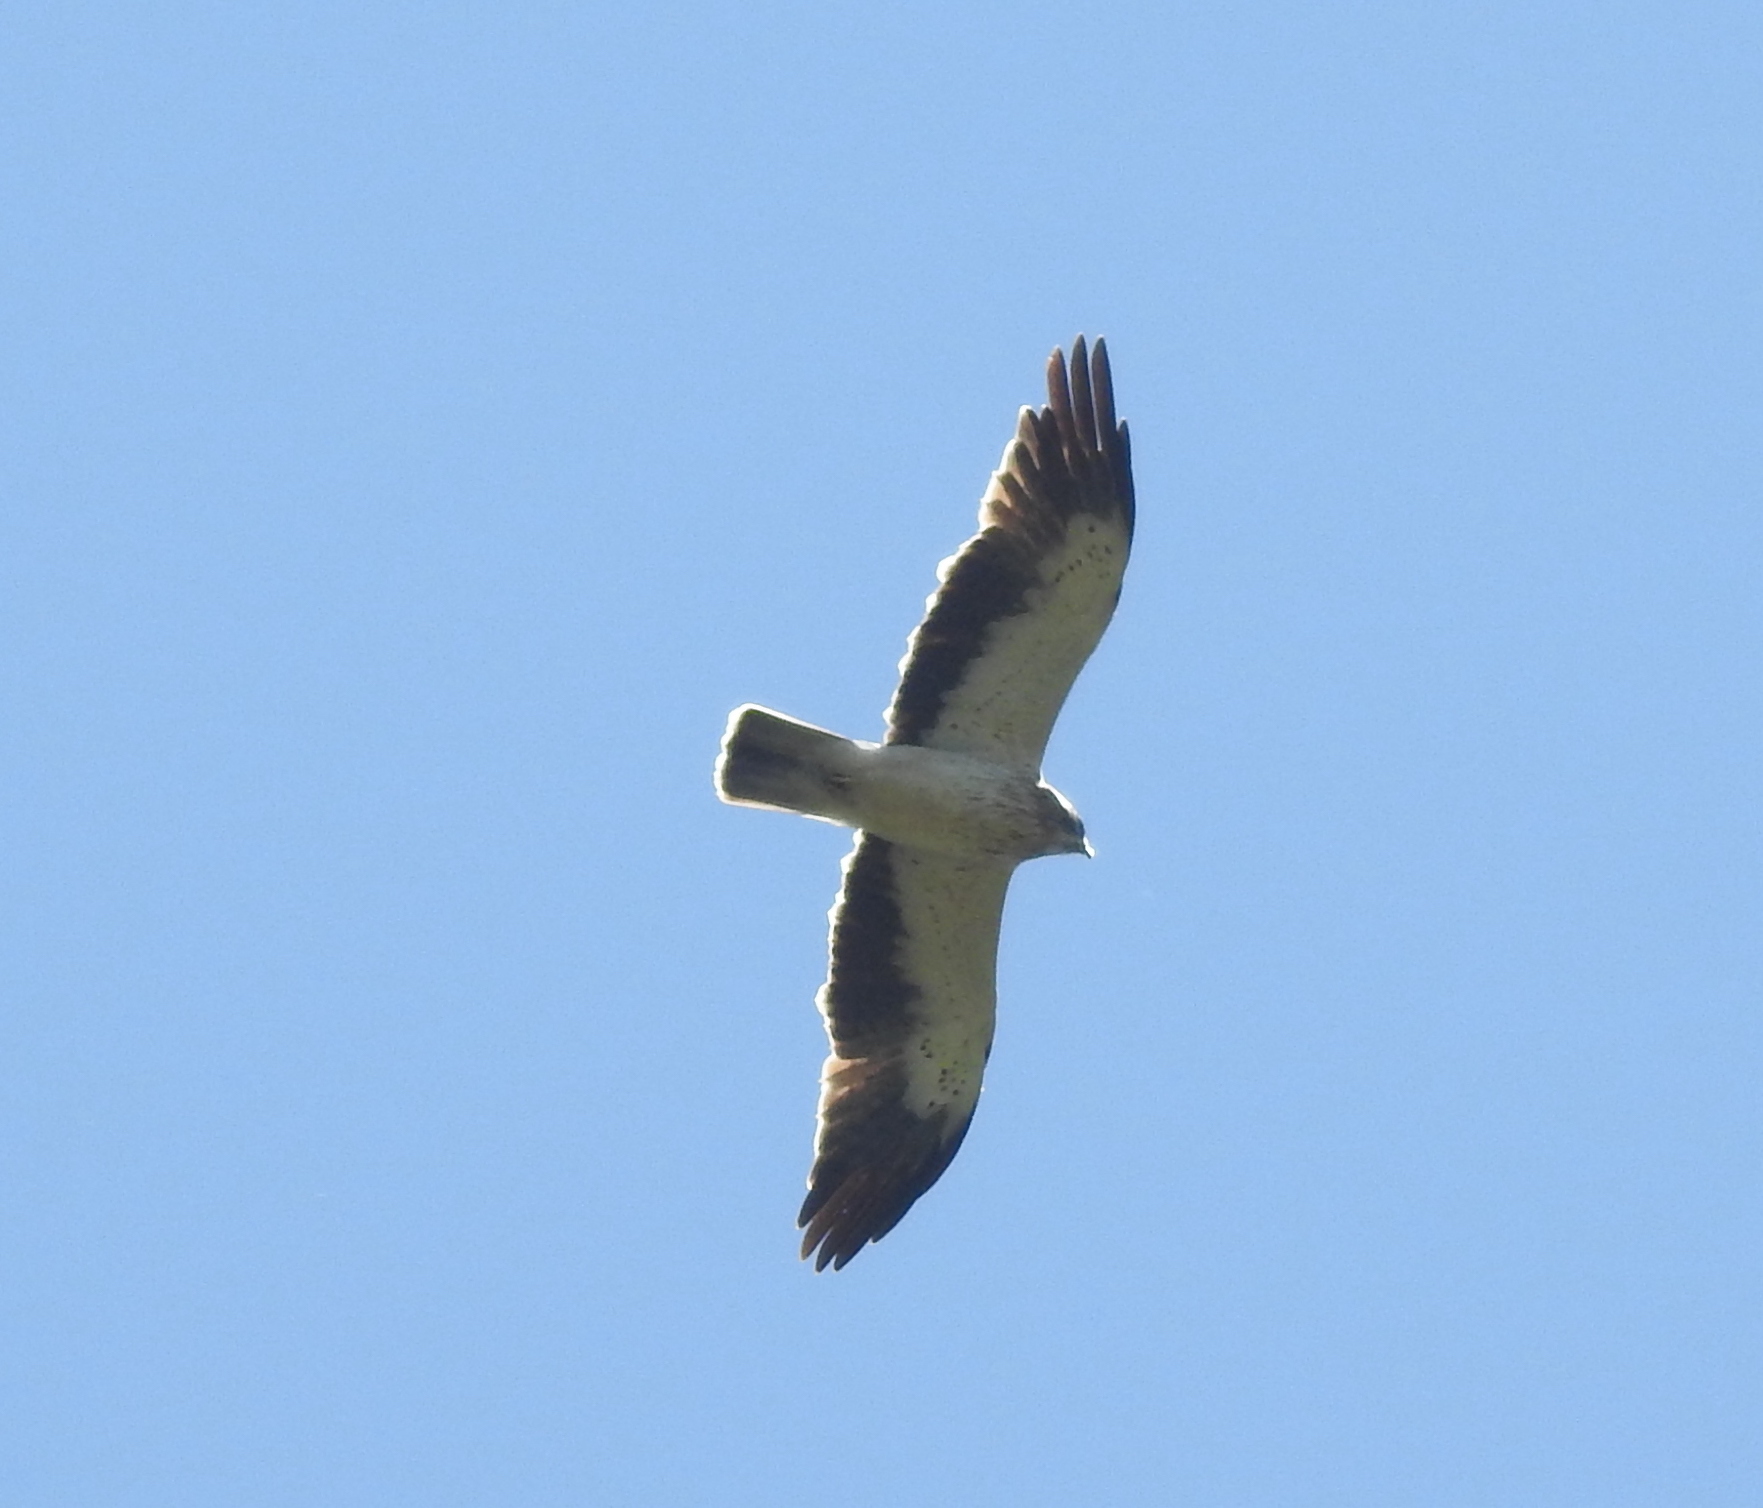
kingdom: Animalia
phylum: Chordata
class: Aves
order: Accipitriformes
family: Accipitridae
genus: Hieraaetus
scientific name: Hieraaetus pennatus
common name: Booted eagle
